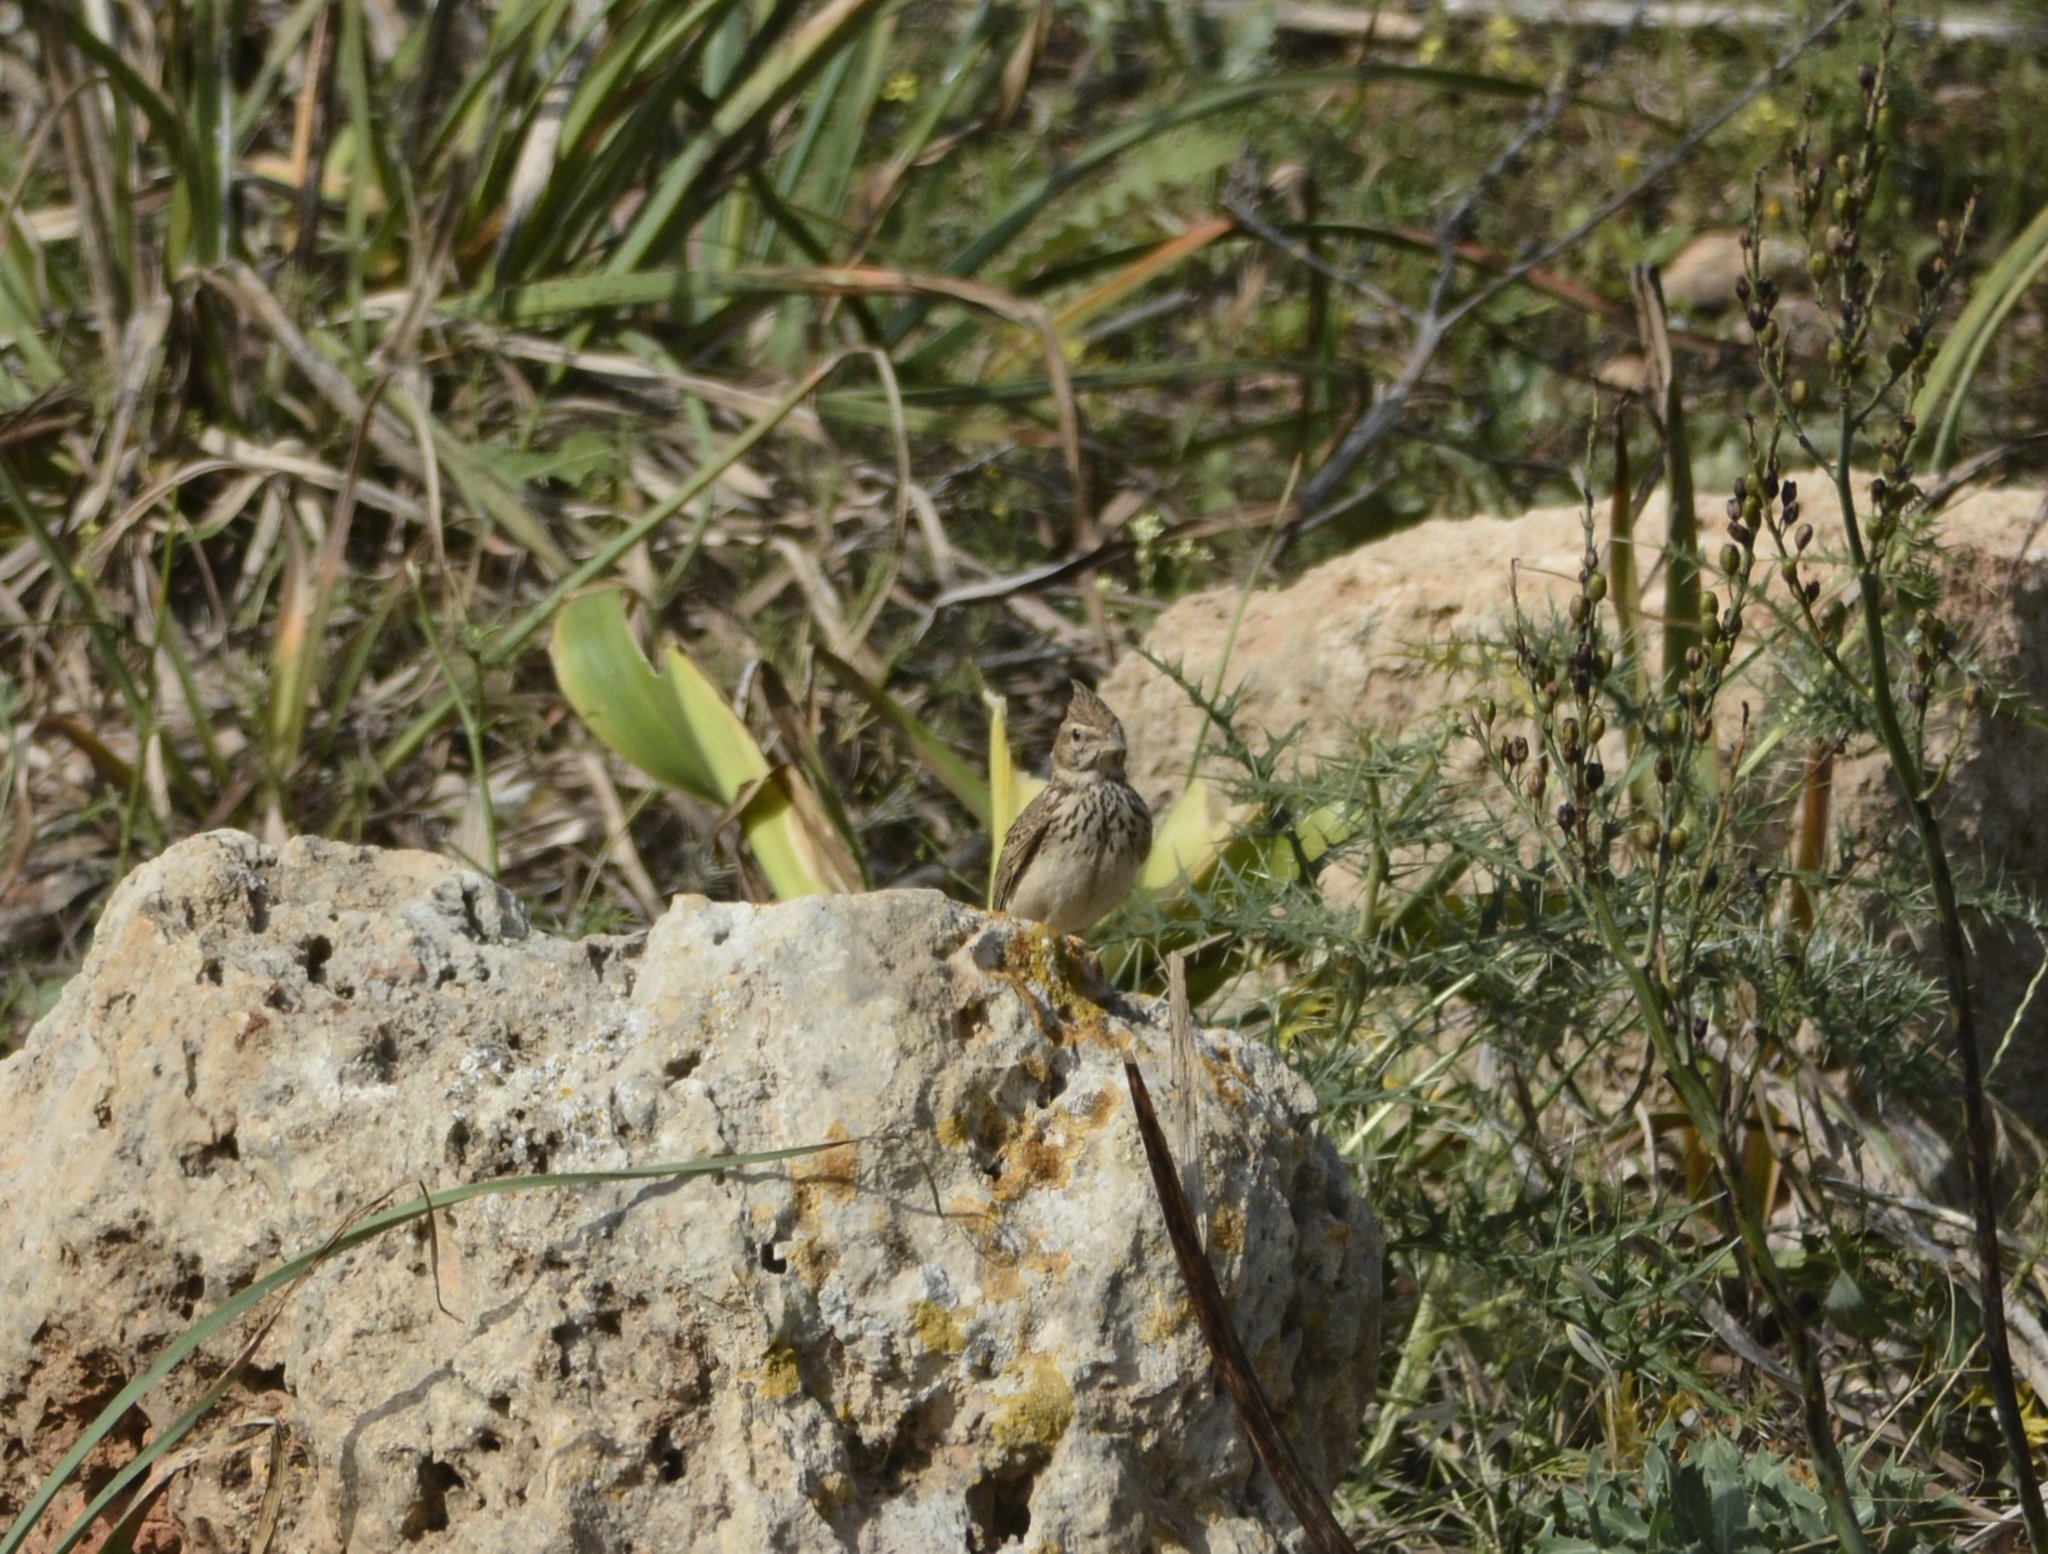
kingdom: Animalia
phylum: Chordata
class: Aves
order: Passeriformes
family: Alaudidae
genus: Galerida
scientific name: Galerida theklae
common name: Thekla lark
